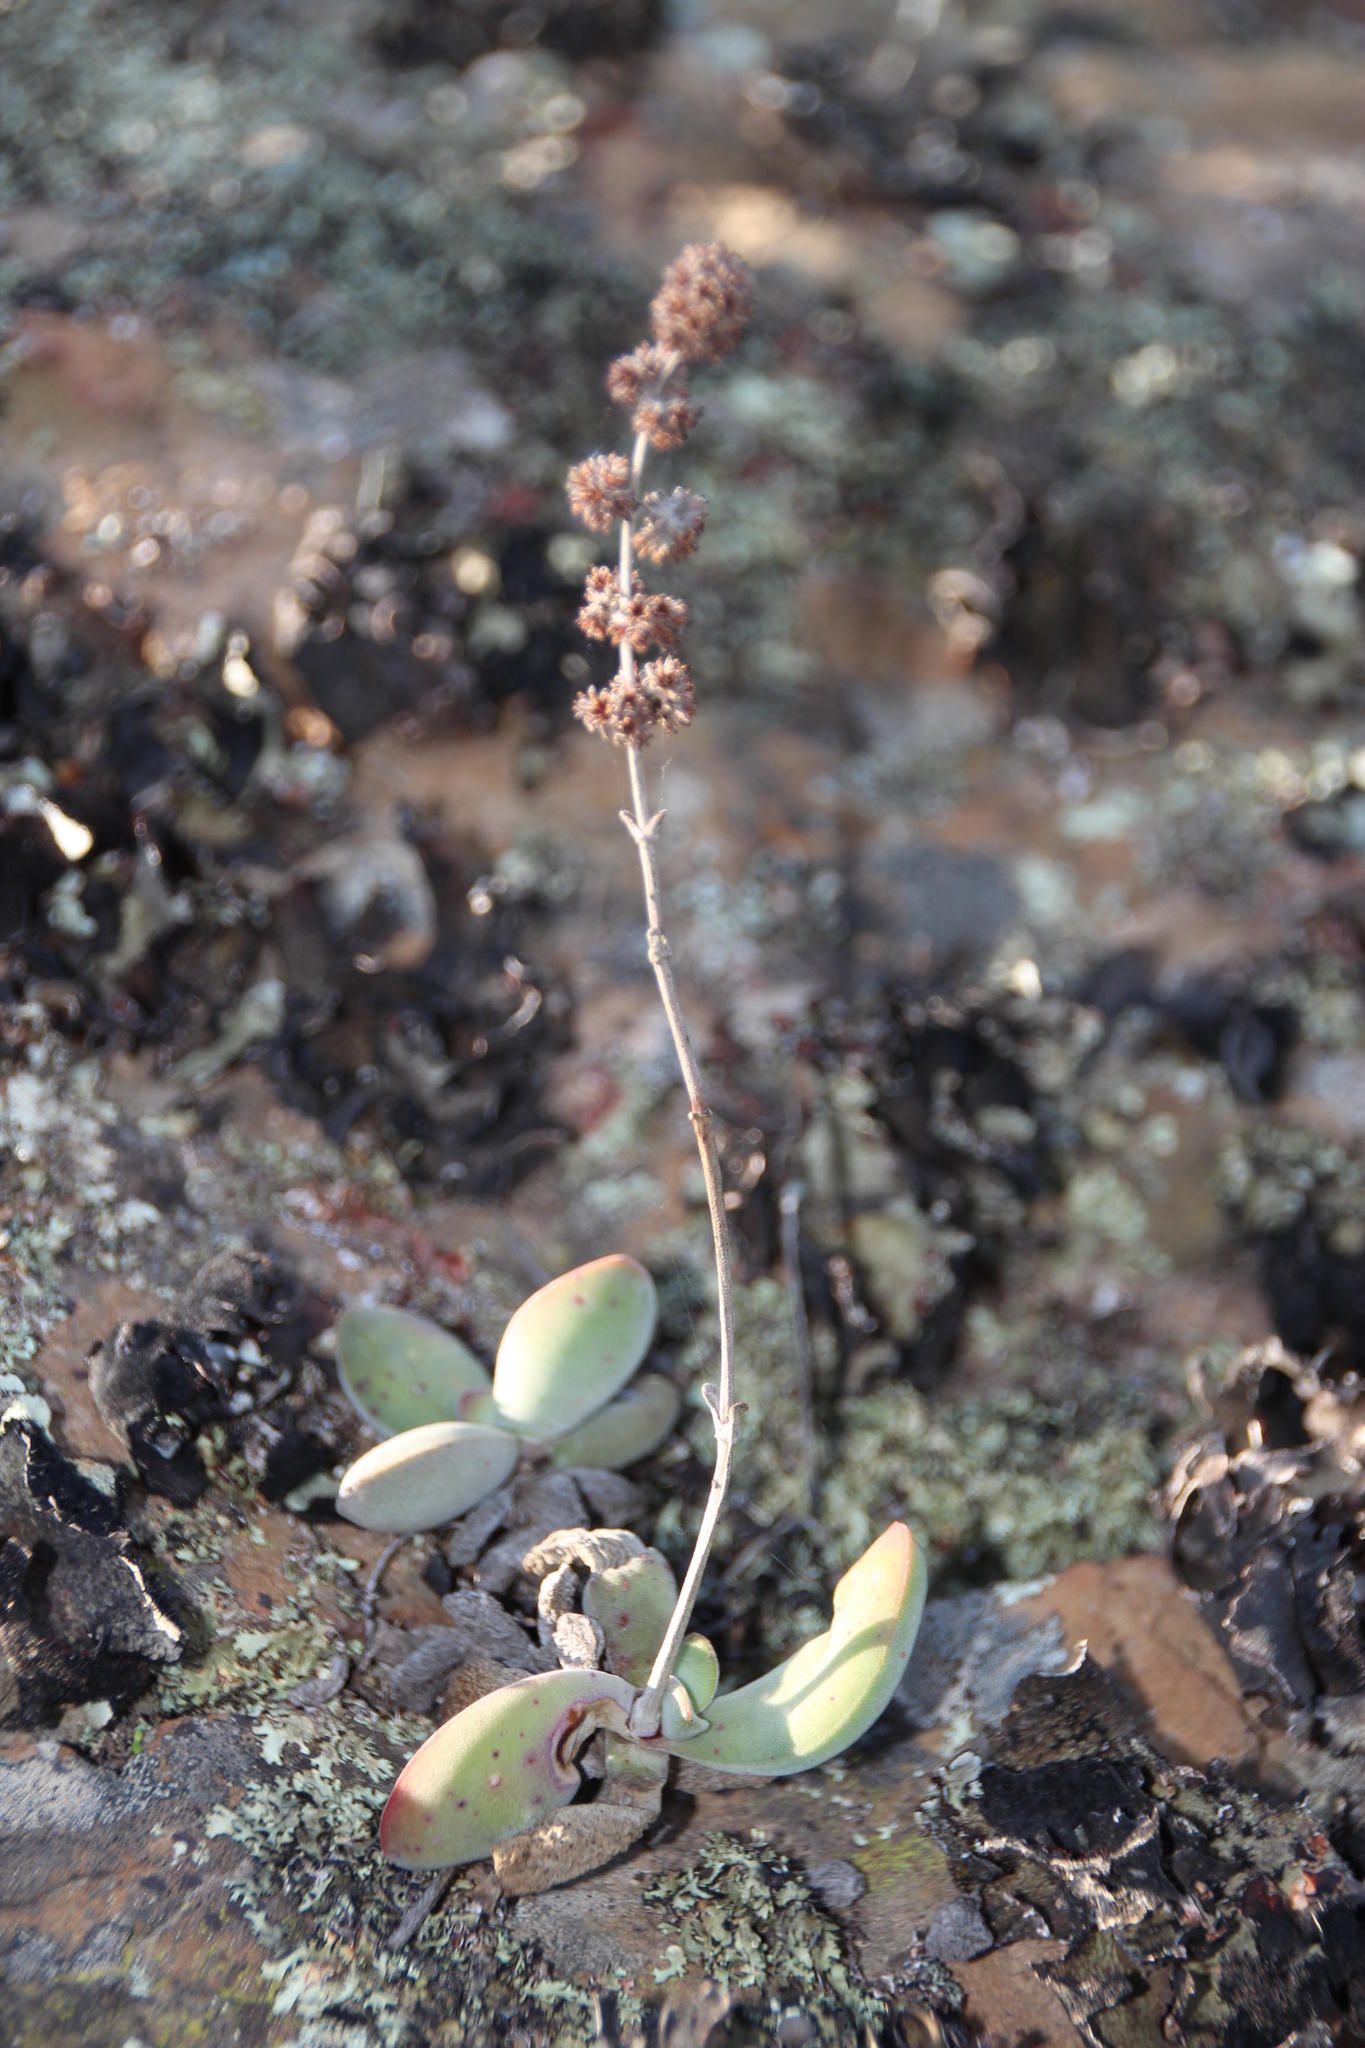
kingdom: Plantae
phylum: Tracheophyta
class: Magnoliopsida
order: Saxifragales
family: Crassulaceae
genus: Crassula
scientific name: Crassula cotyledonis
